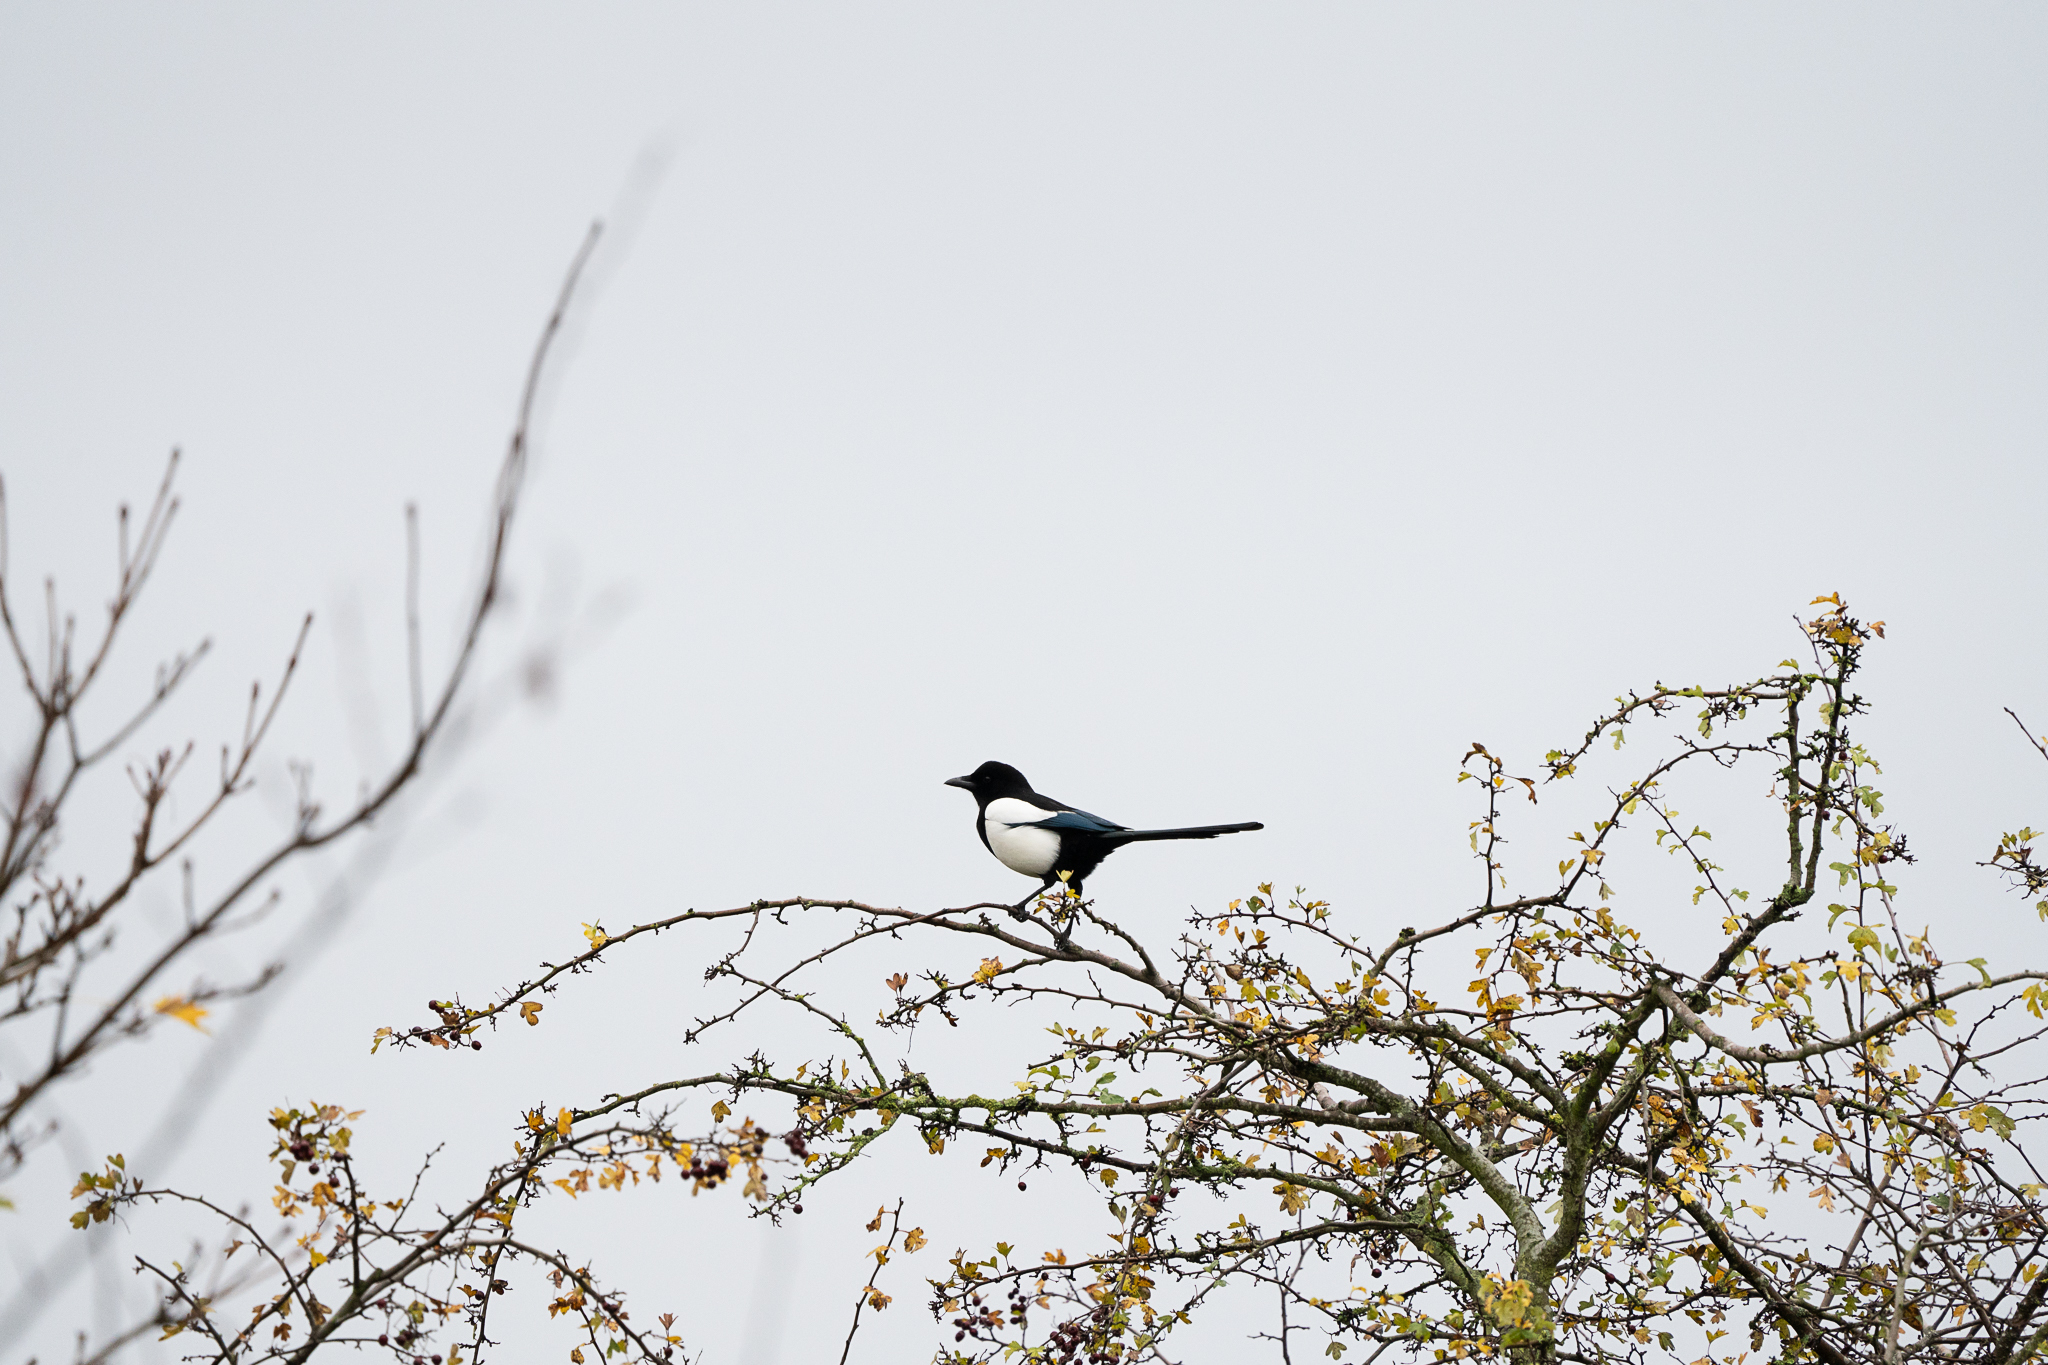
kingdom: Animalia
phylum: Chordata
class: Aves
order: Passeriformes
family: Corvidae
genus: Pica
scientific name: Pica pica
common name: Eurasian magpie
